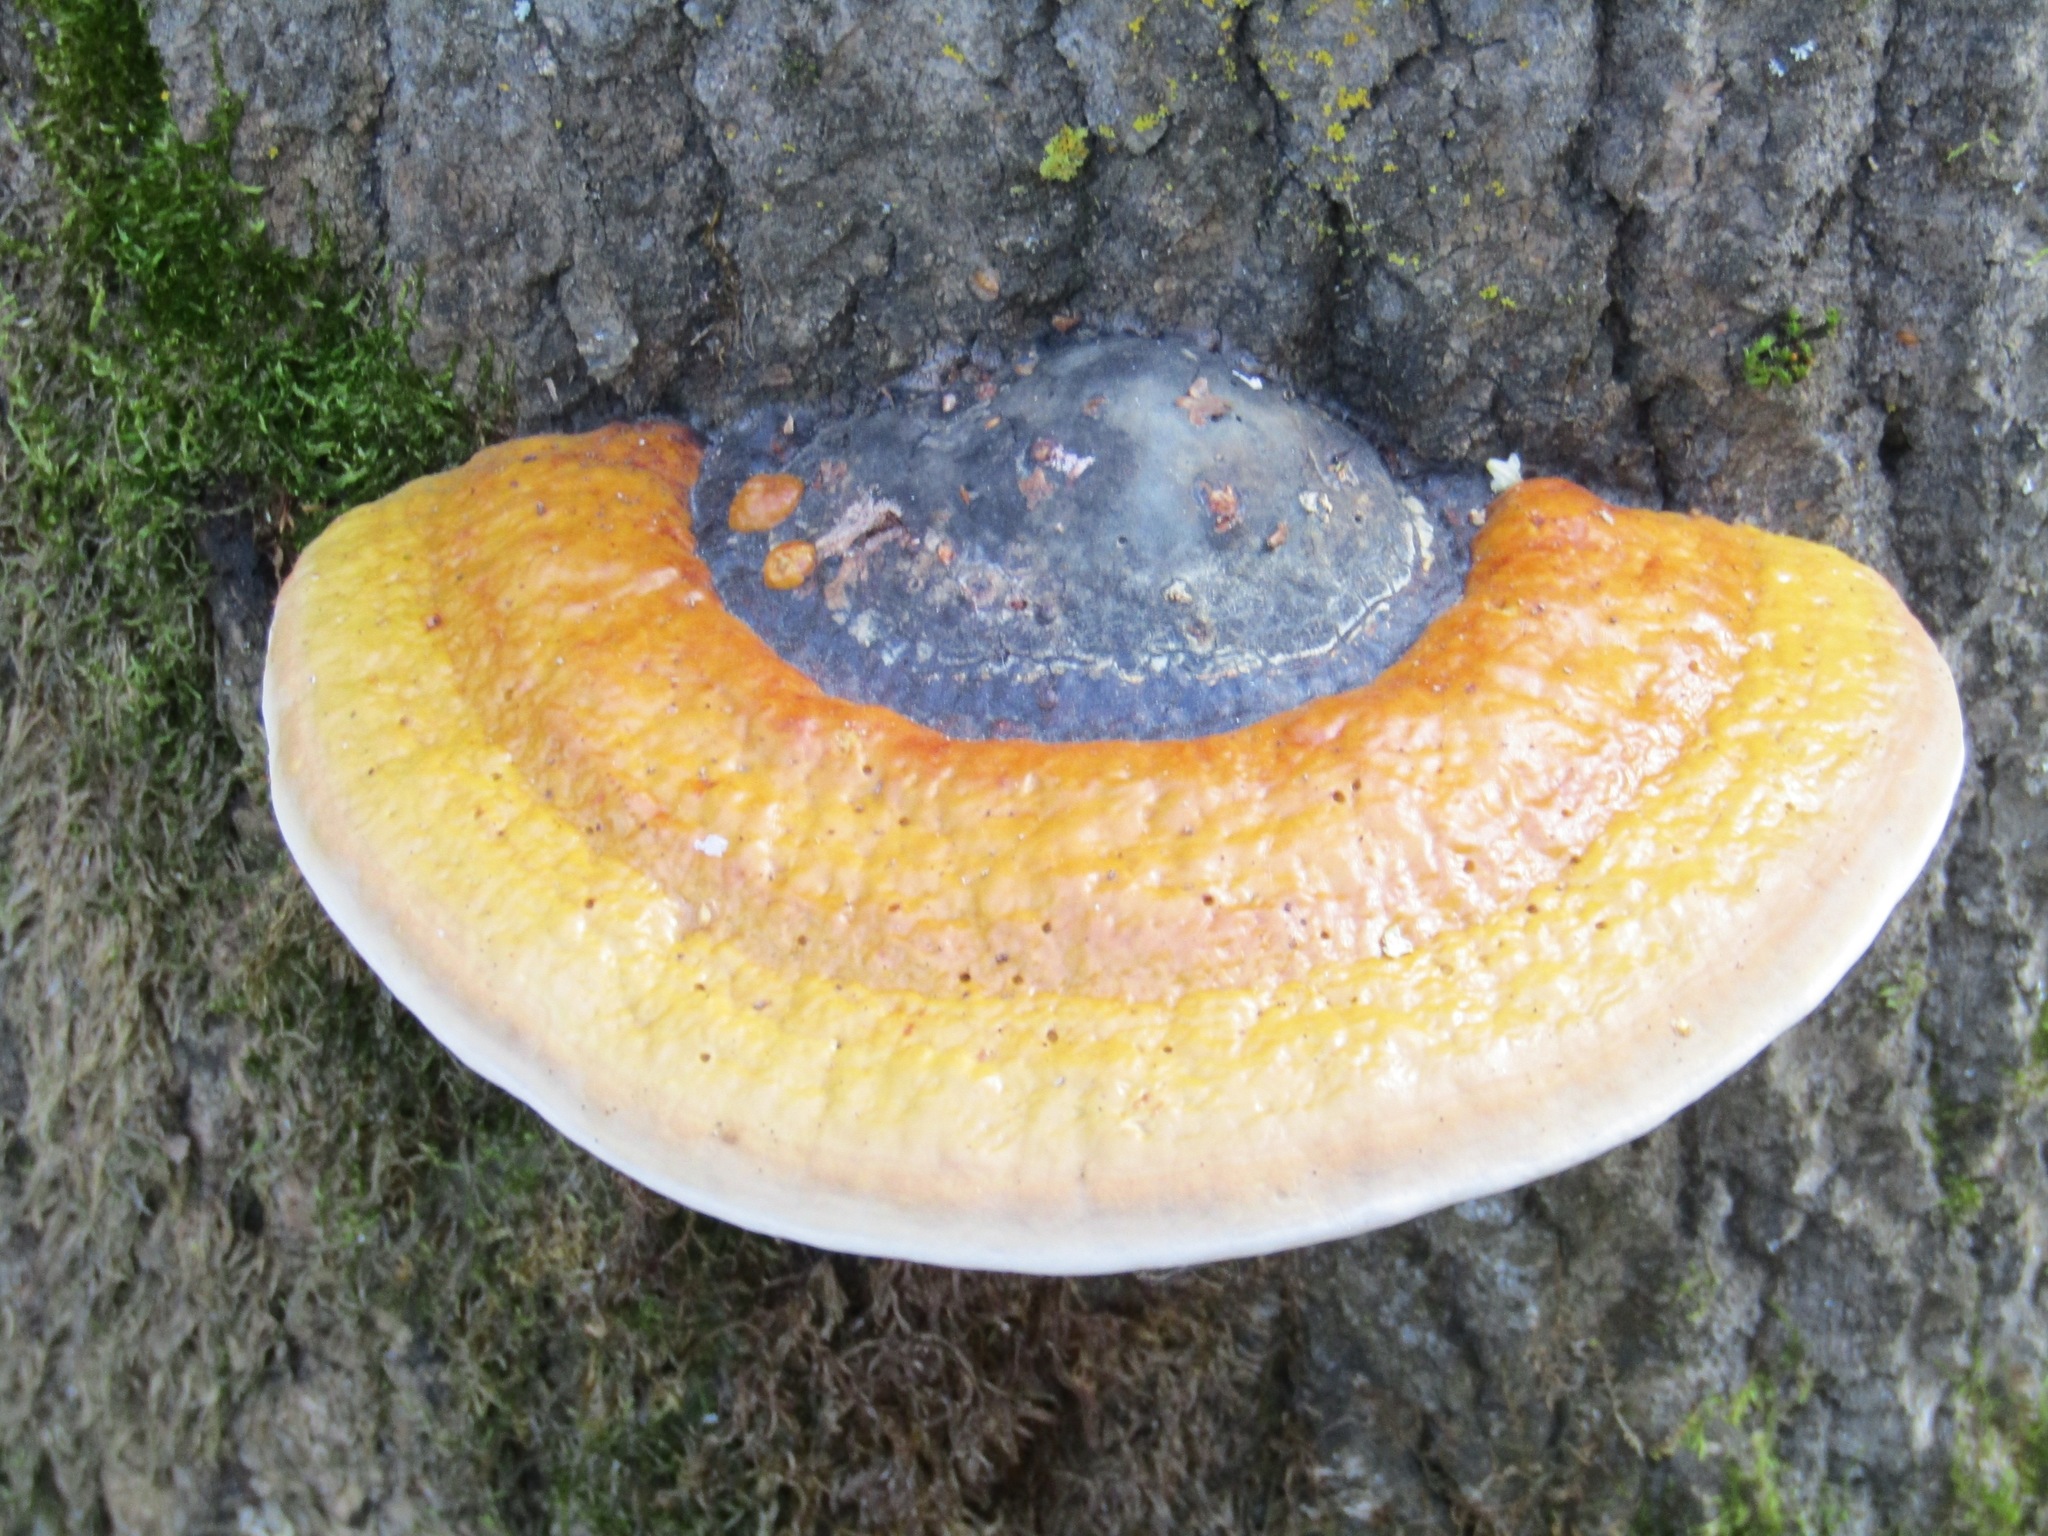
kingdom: Fungi
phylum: Basidiomycota
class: Agaricomycetes
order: Polyporales
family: Fomitopsidaceae
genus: Fomitopsis
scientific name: Fomitopsis pinicola
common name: Red-belted bracket
